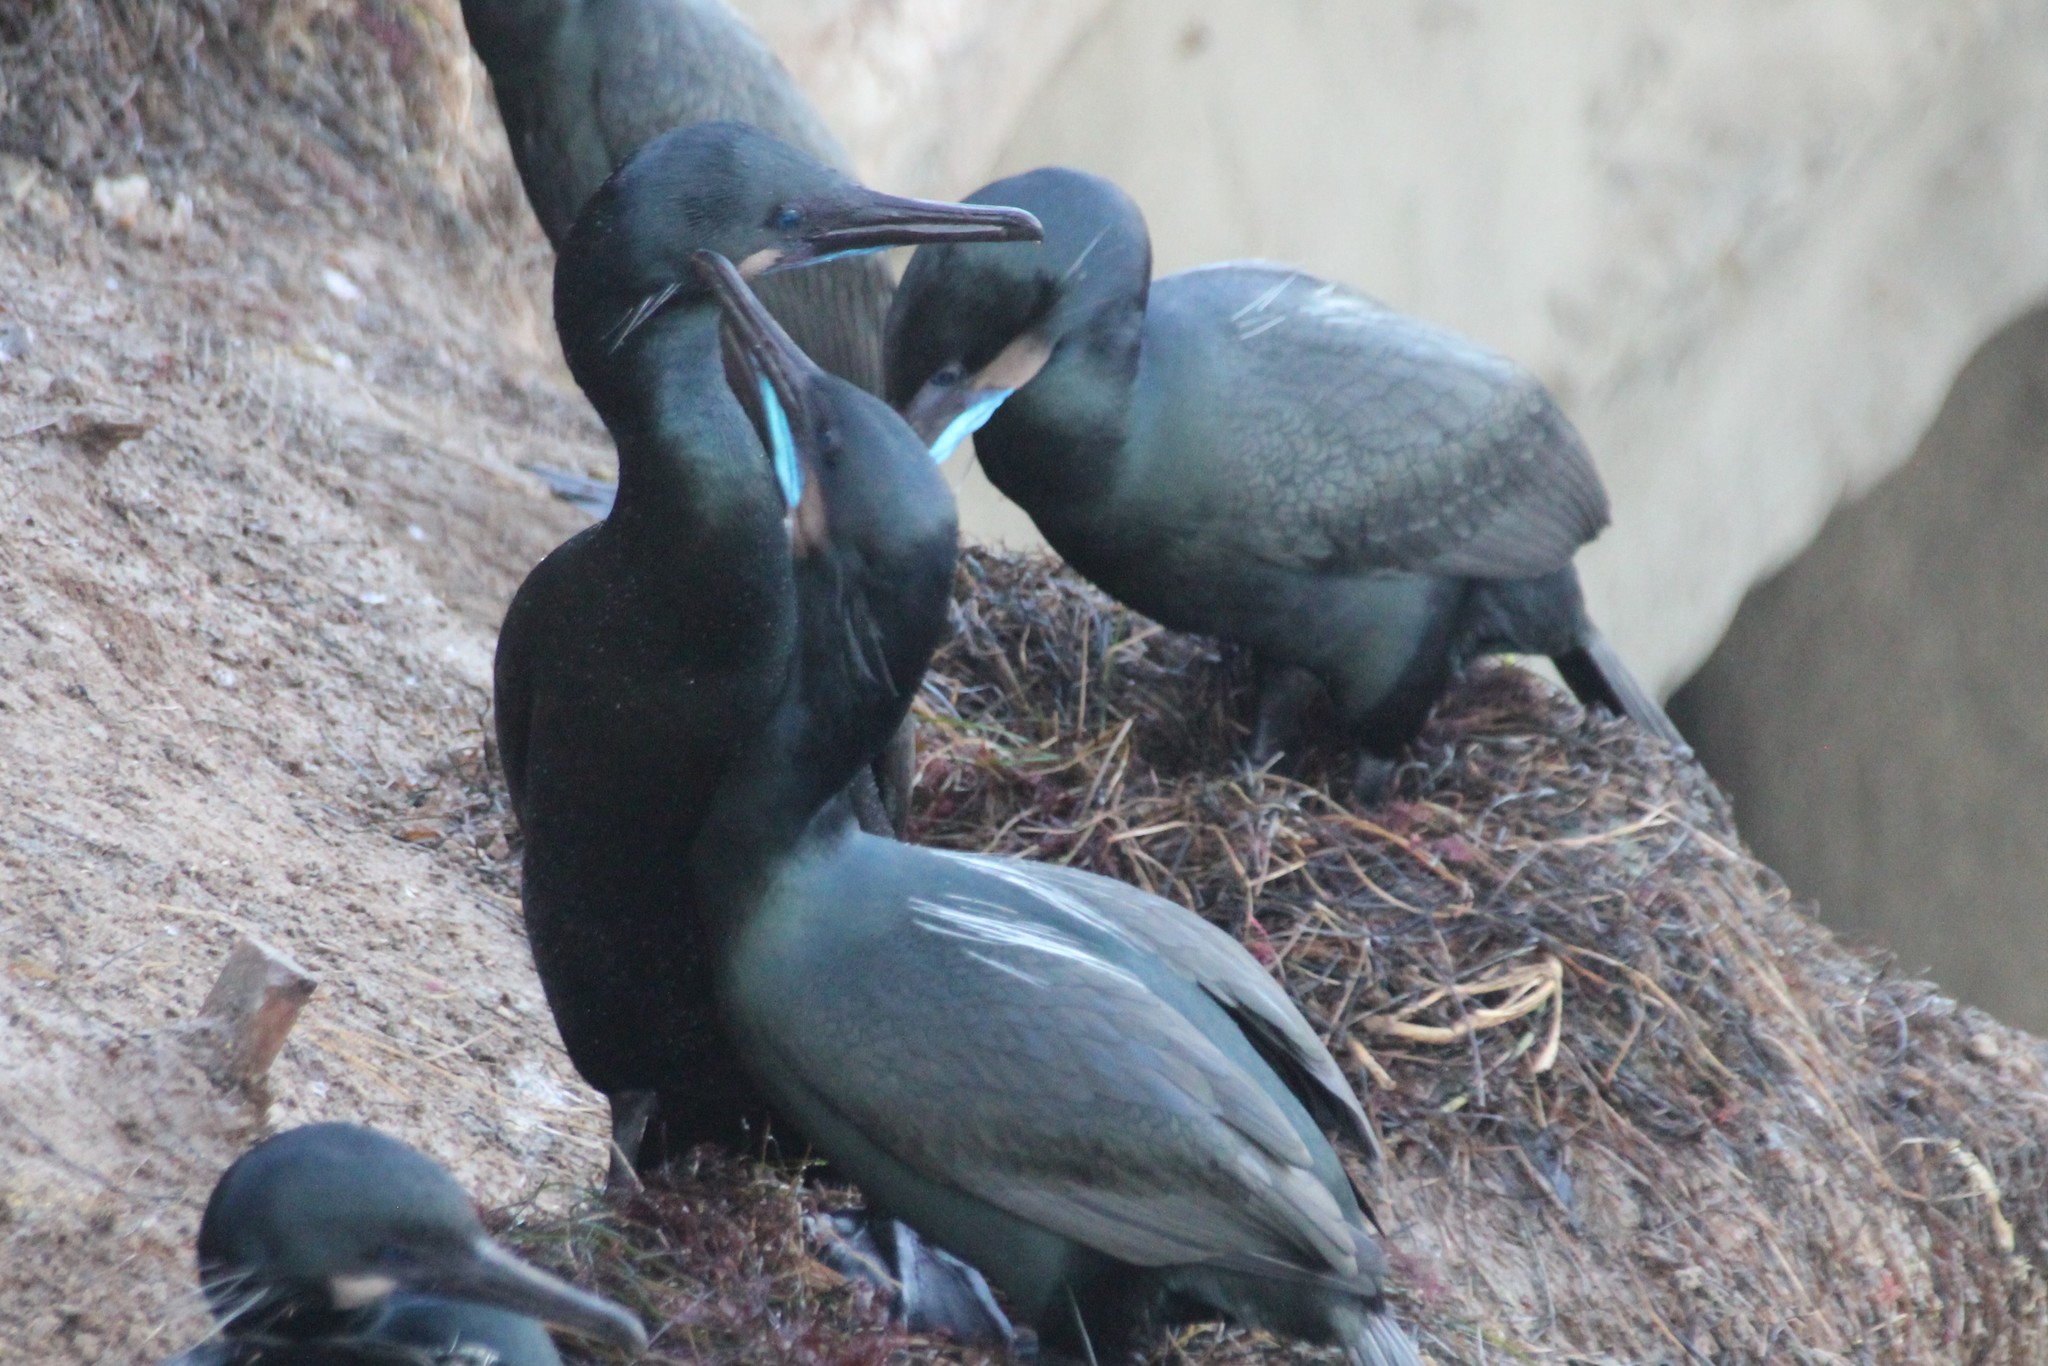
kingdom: Animalia
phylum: Chordata
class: Aves
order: Suliformes
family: Phalacrocoracidae
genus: Urile
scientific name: Urile penicillatus
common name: Brandt's cormorant
